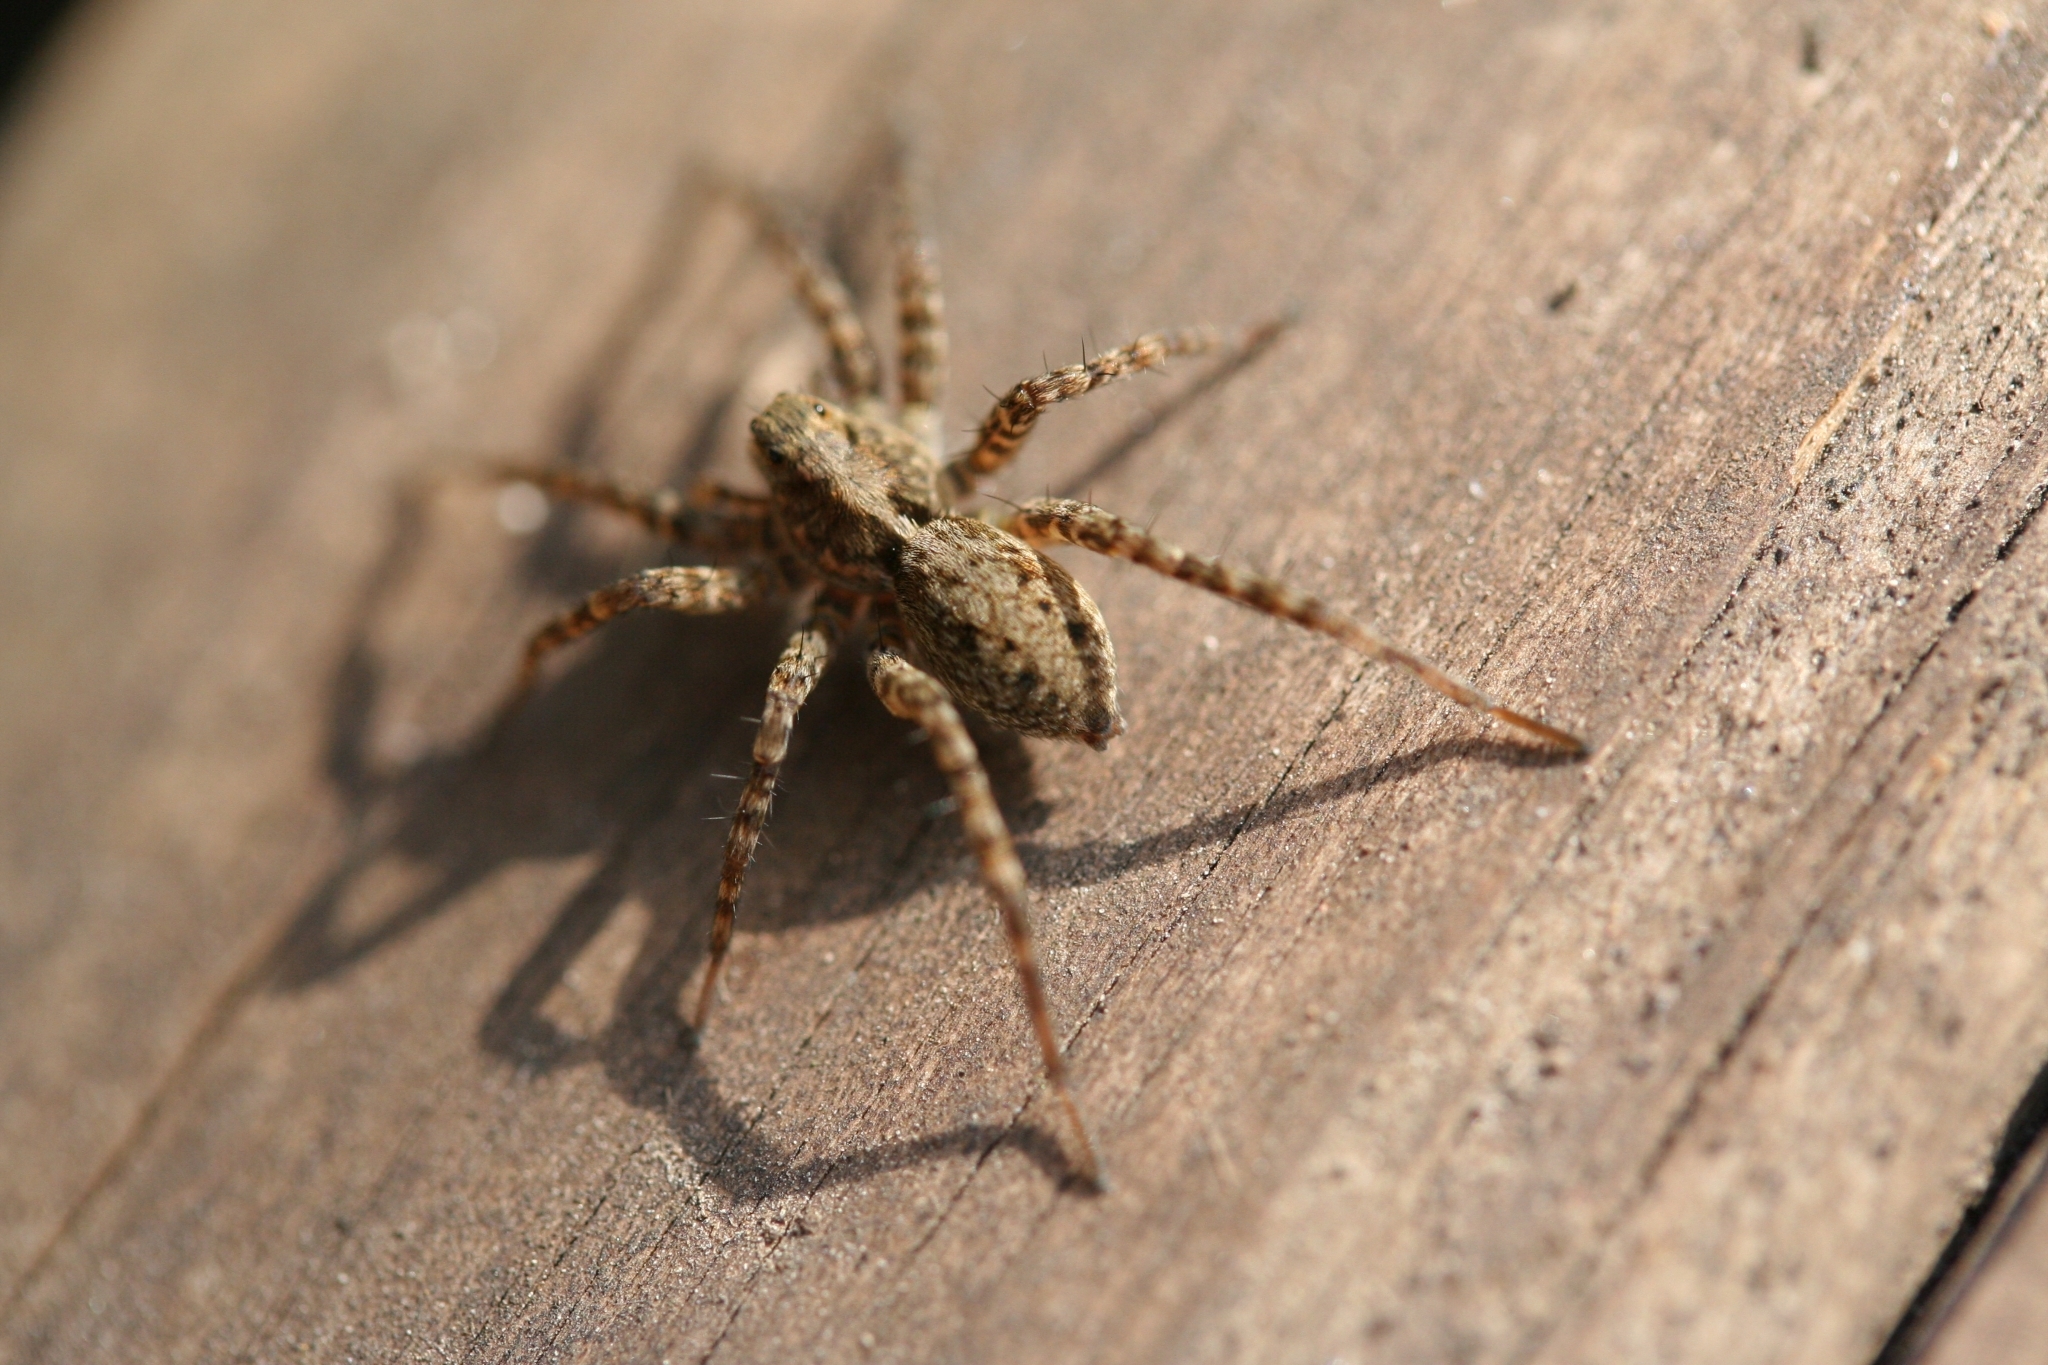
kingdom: Animalia
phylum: Arthropoda
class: Arachnida
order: Araneae
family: Lycosidae
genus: Pardosa
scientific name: Pardosa
